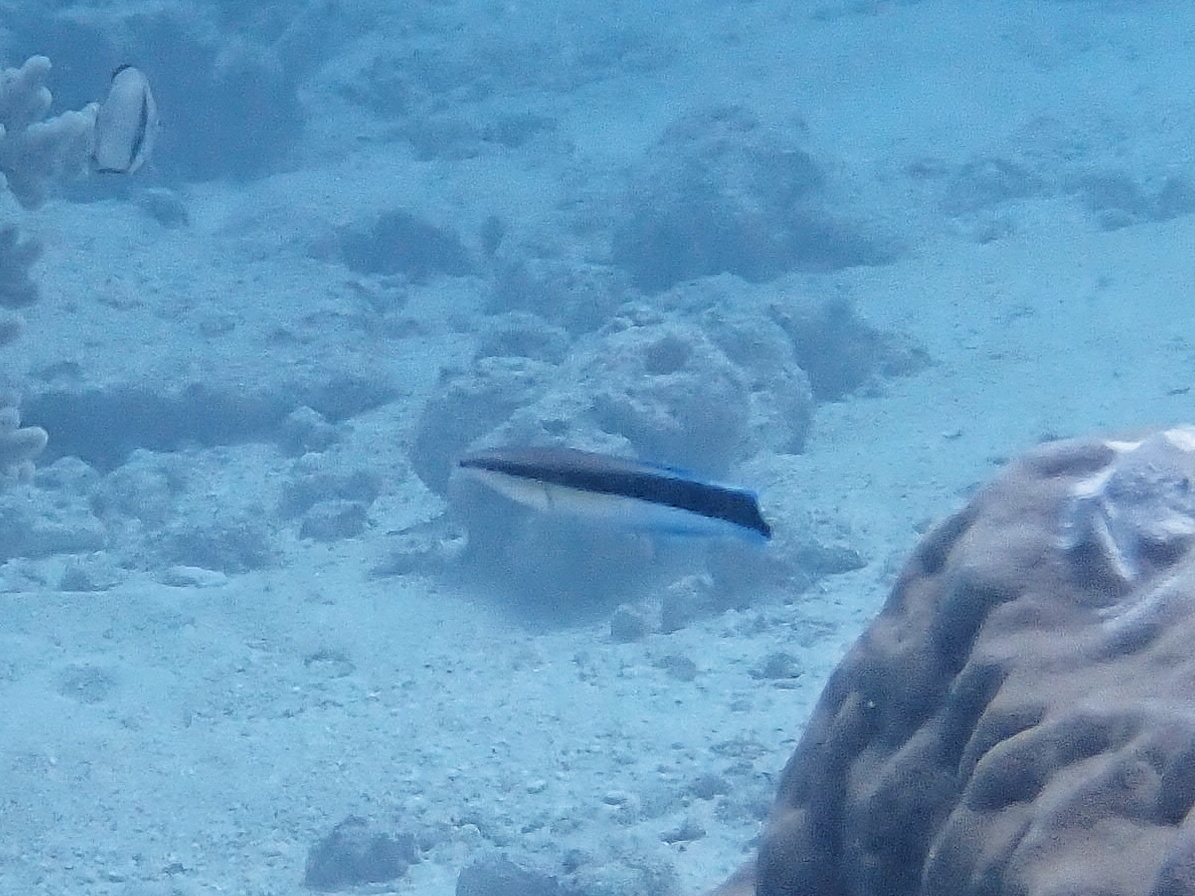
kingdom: Animalia
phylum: Chordata
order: Perciformes
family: Labridae
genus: Labroides
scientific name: Labroides dimidiatus
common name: Blue diesel wrasse
